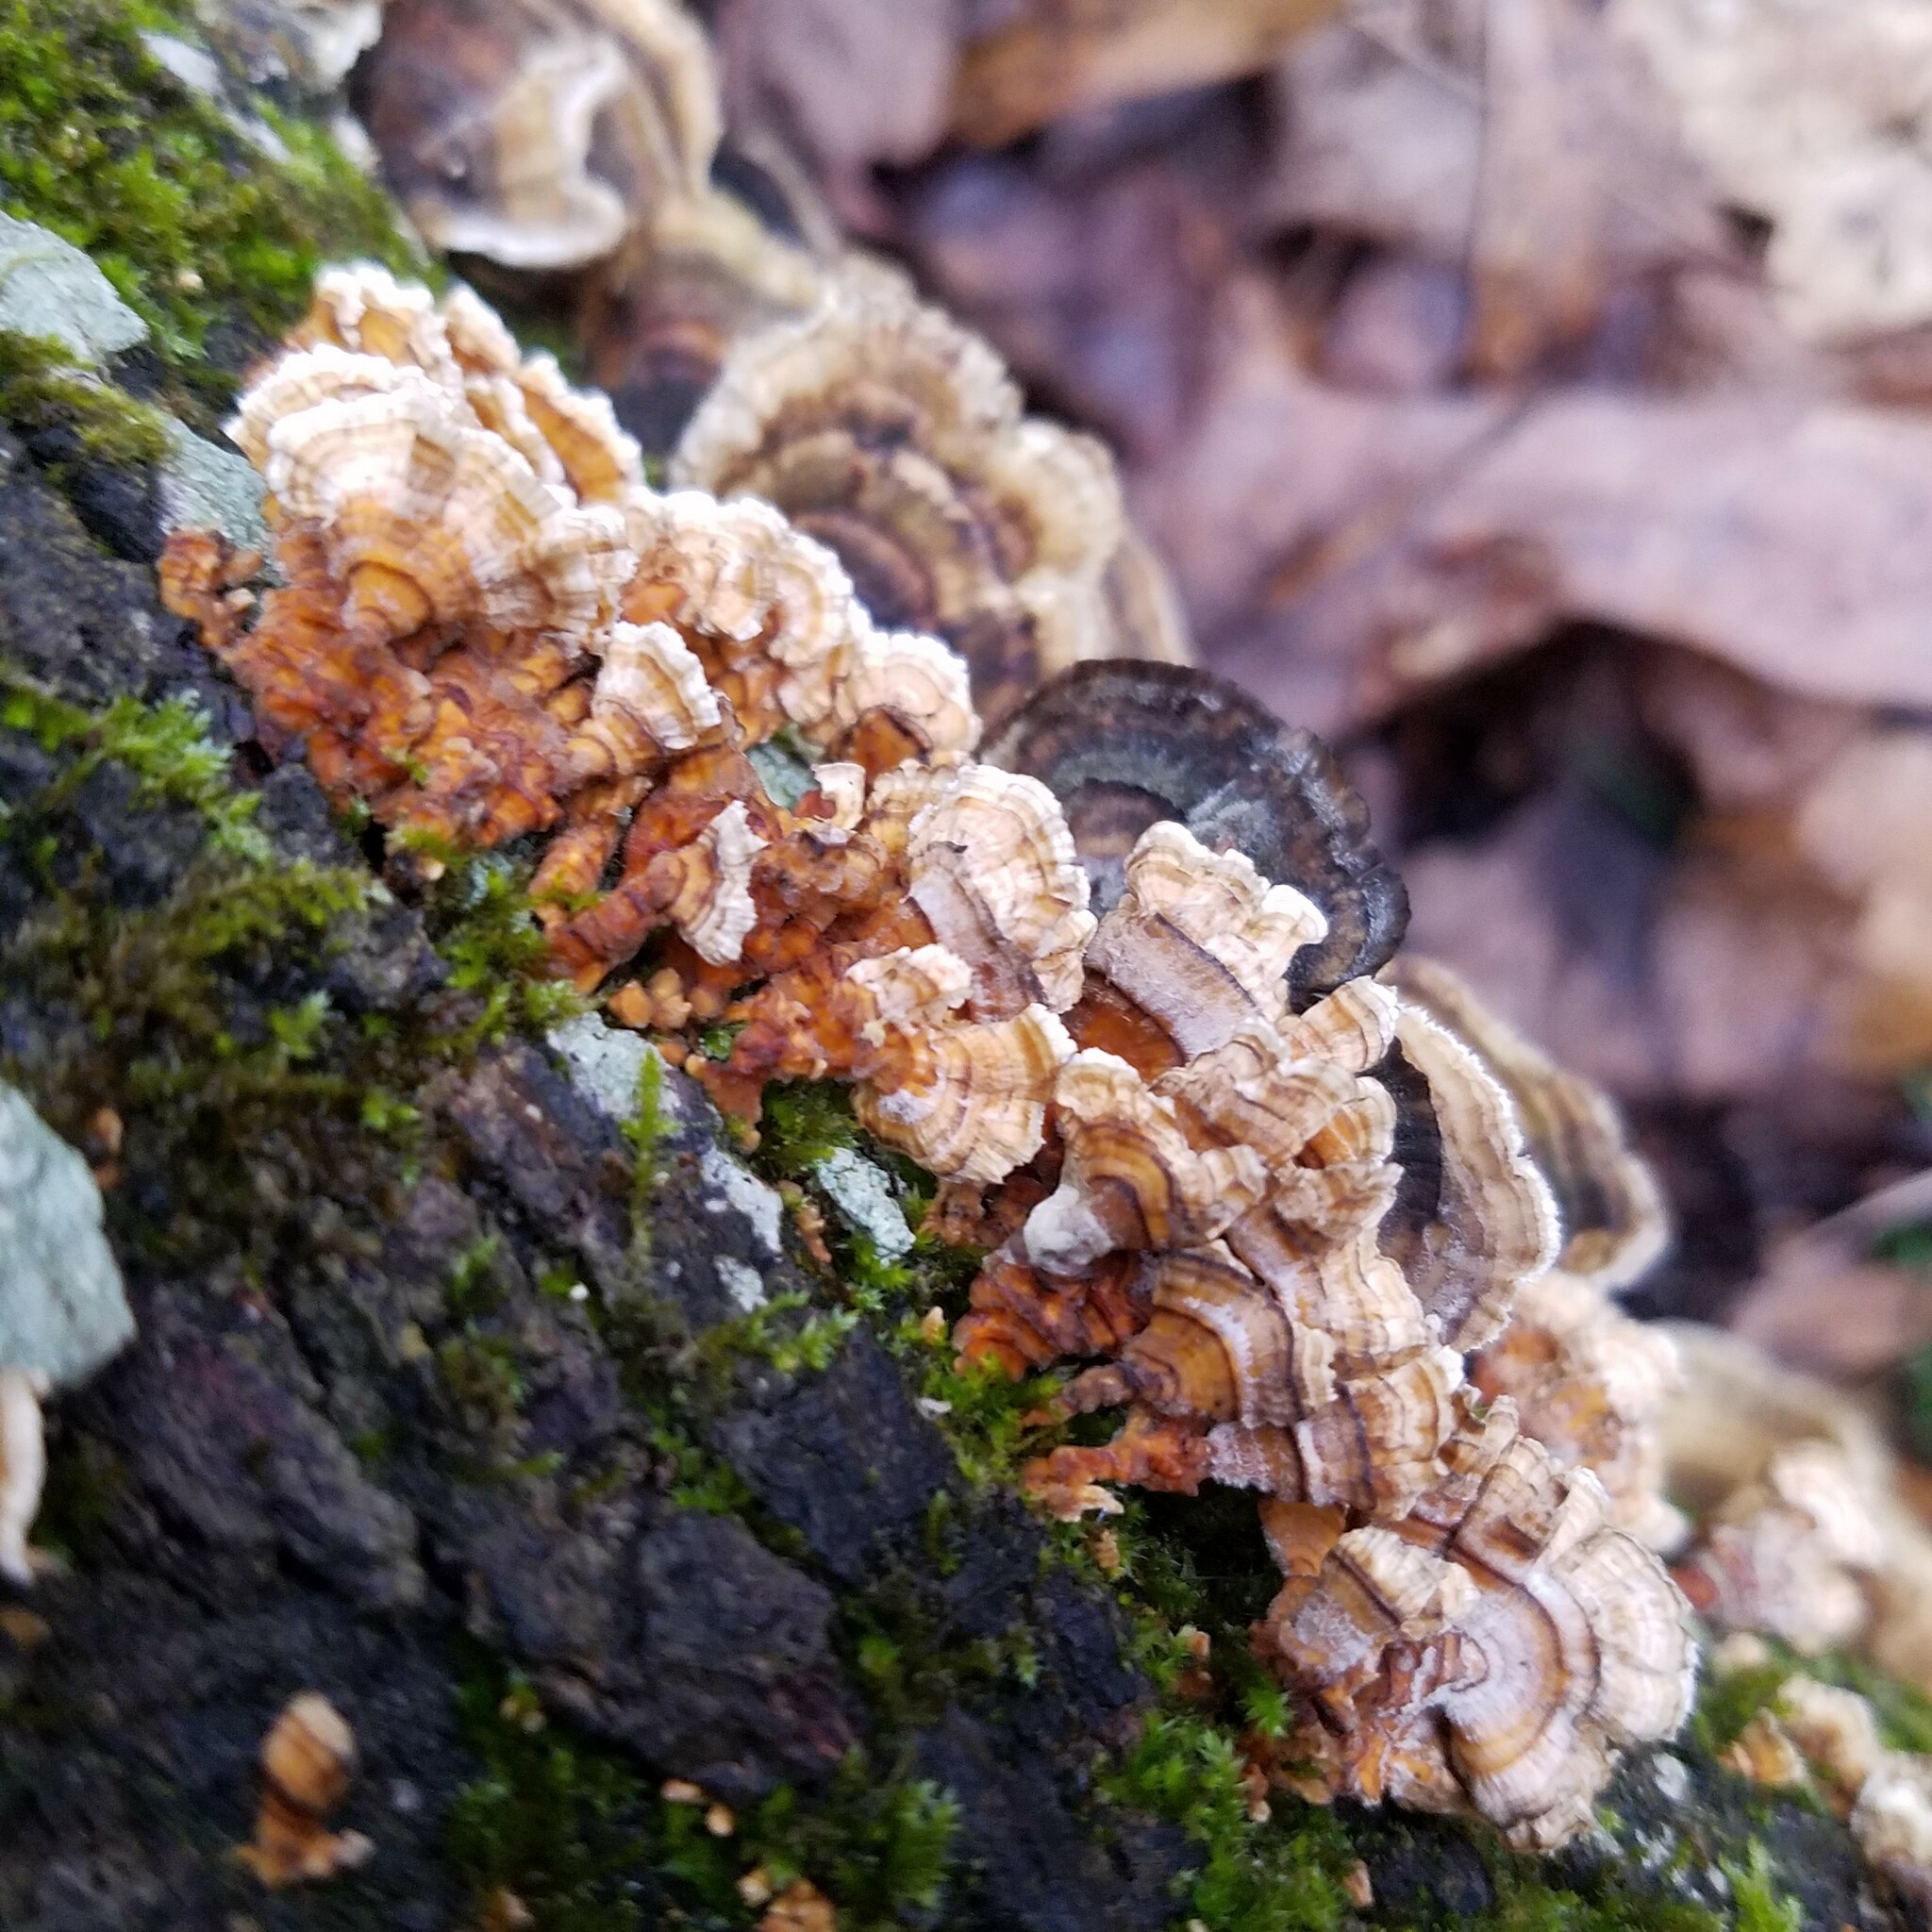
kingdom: Fungi
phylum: Basidiomycota
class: Agaricomycetes
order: Russulales
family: Stereaceae
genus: Stereum
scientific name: Stereum complicatum
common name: Crowded parchment
